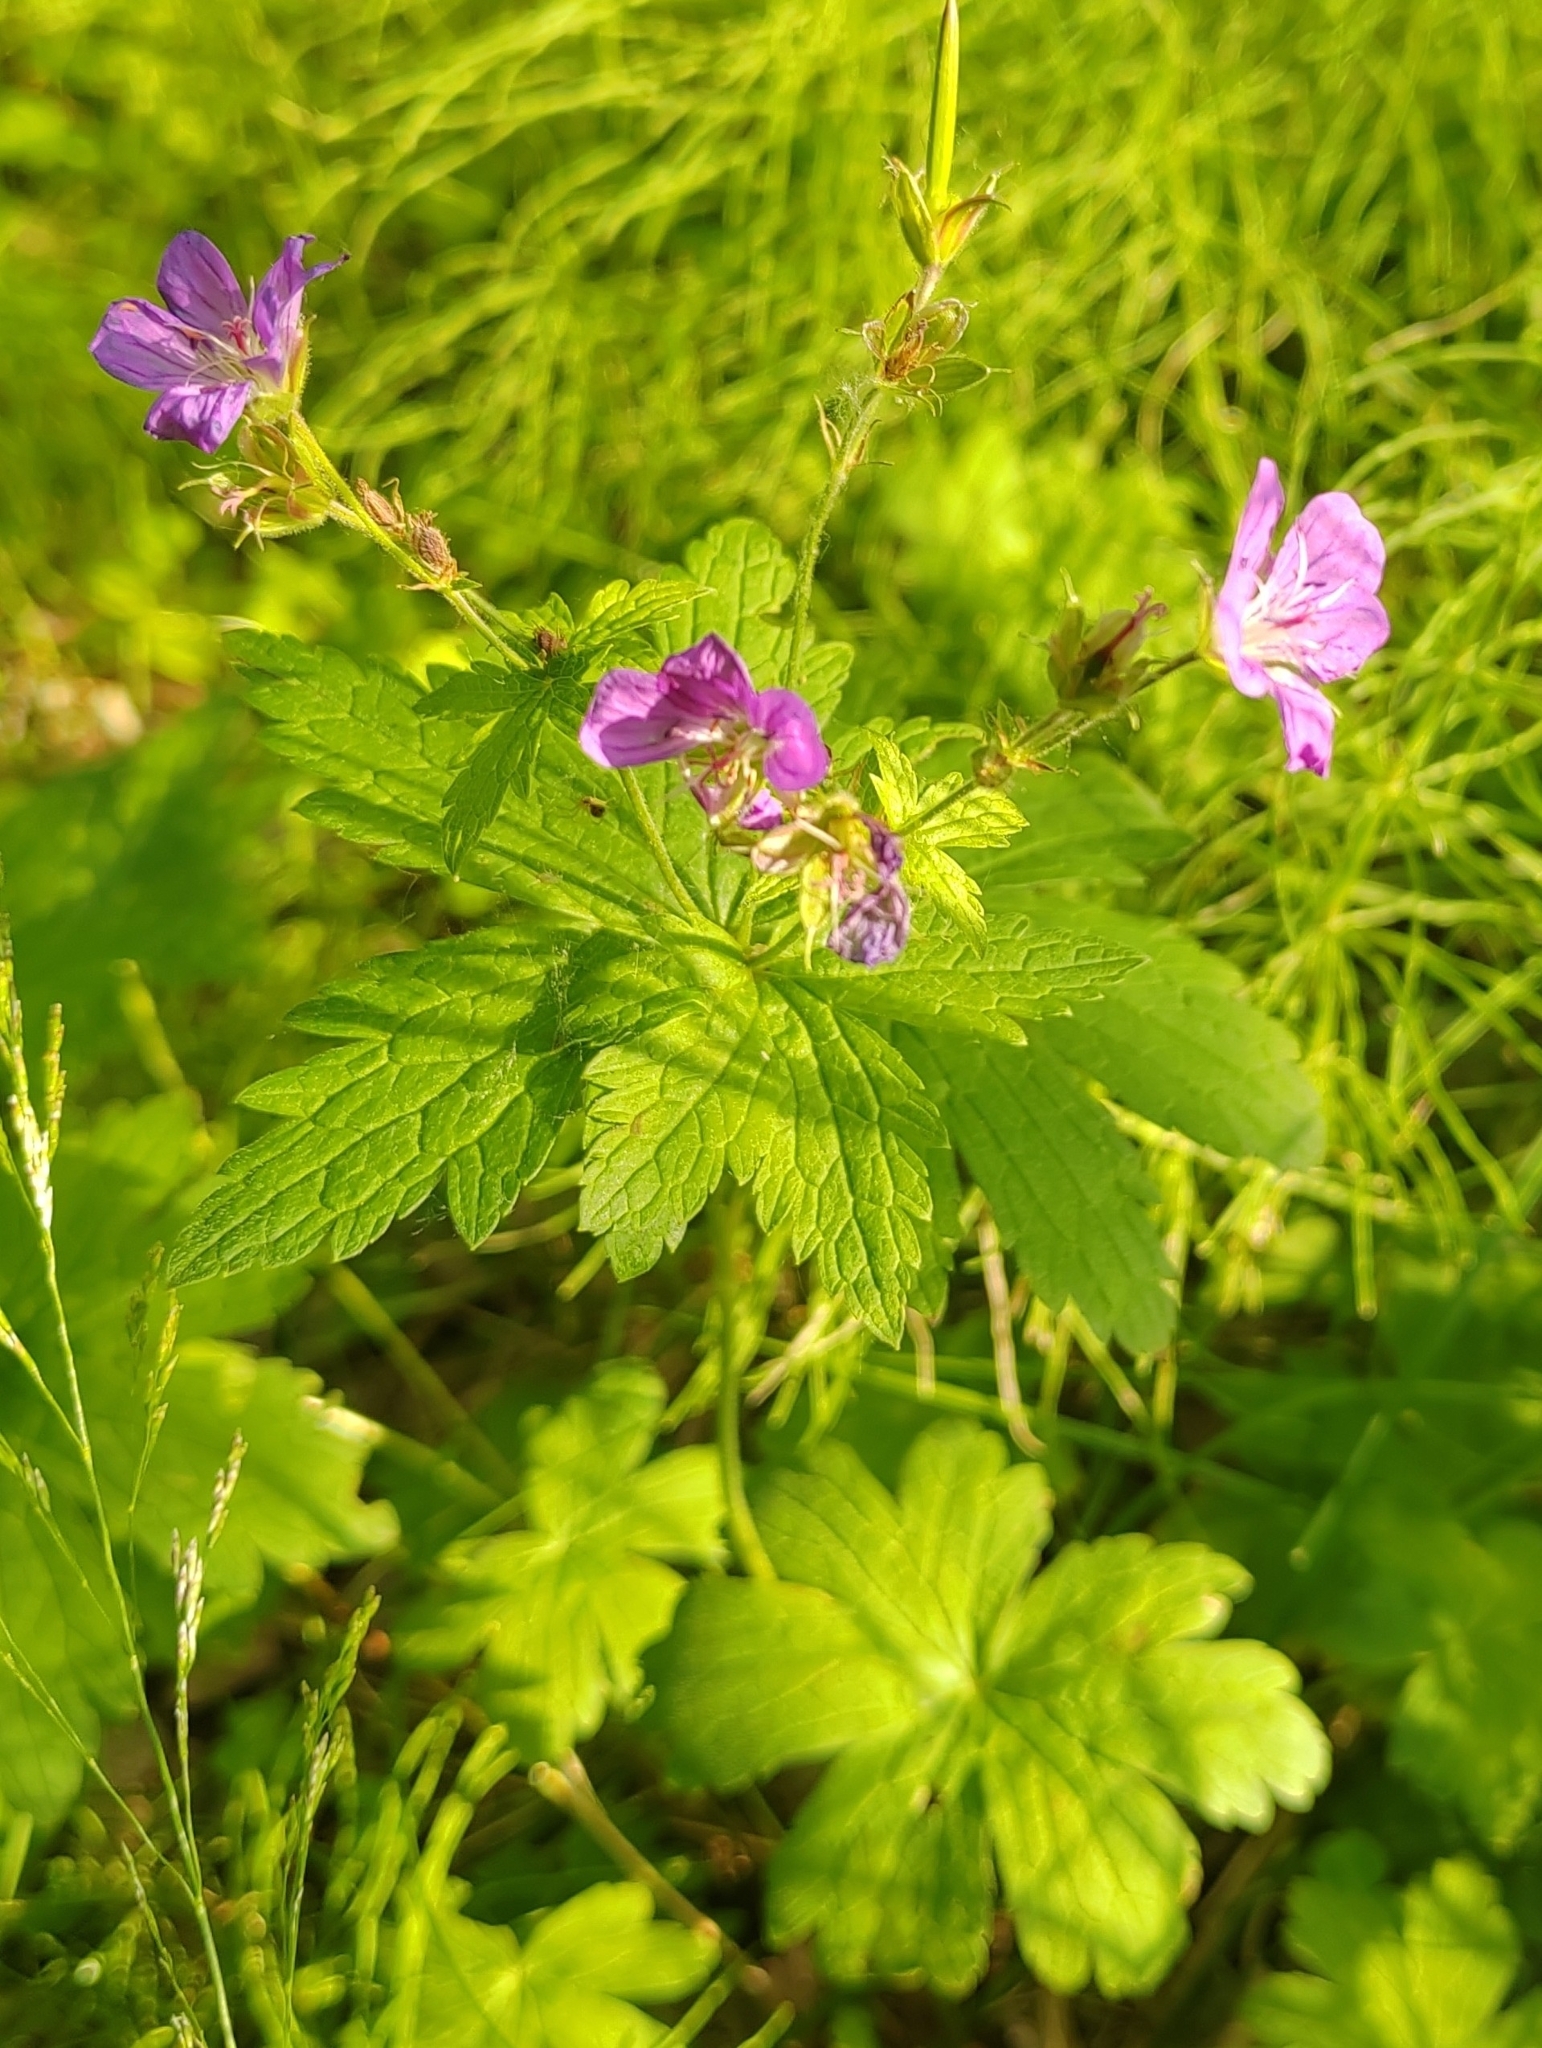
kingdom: Plantae
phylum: Tracheophyta
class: Magnoliopsida
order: Geraniales
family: Geraniaceae
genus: Geranium
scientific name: Geranium sylvaticum
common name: Wood crane's-bill
